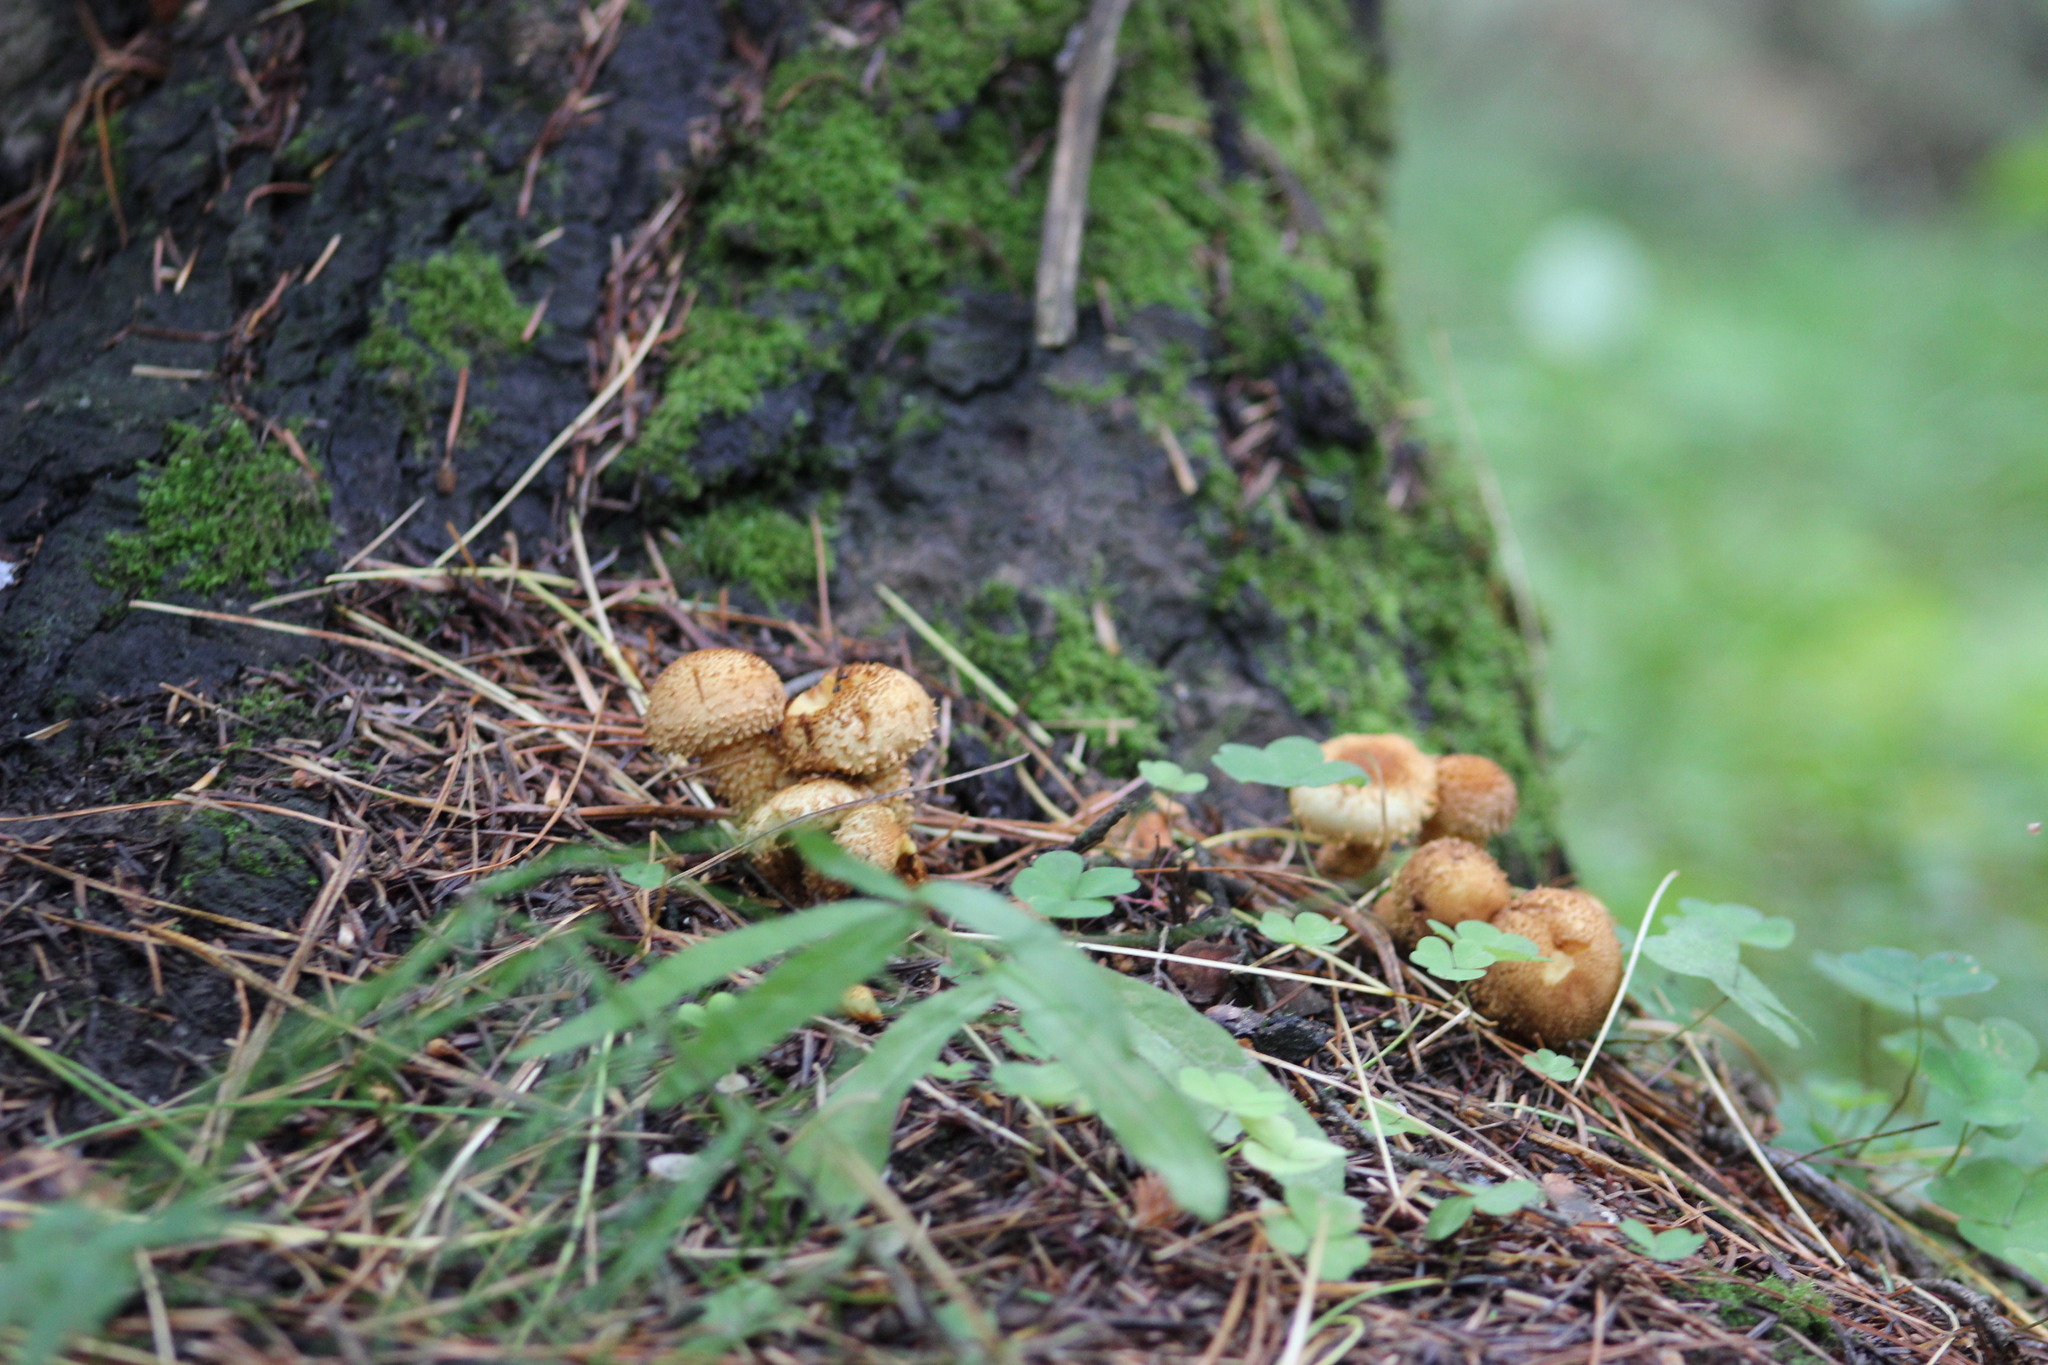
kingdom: Fungi
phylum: Basidiomycota
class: Agaricomycetes
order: Agaricales
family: Strophariaceae
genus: Pholiota
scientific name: Pholiota squarrosa
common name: Shaggy pholiota
